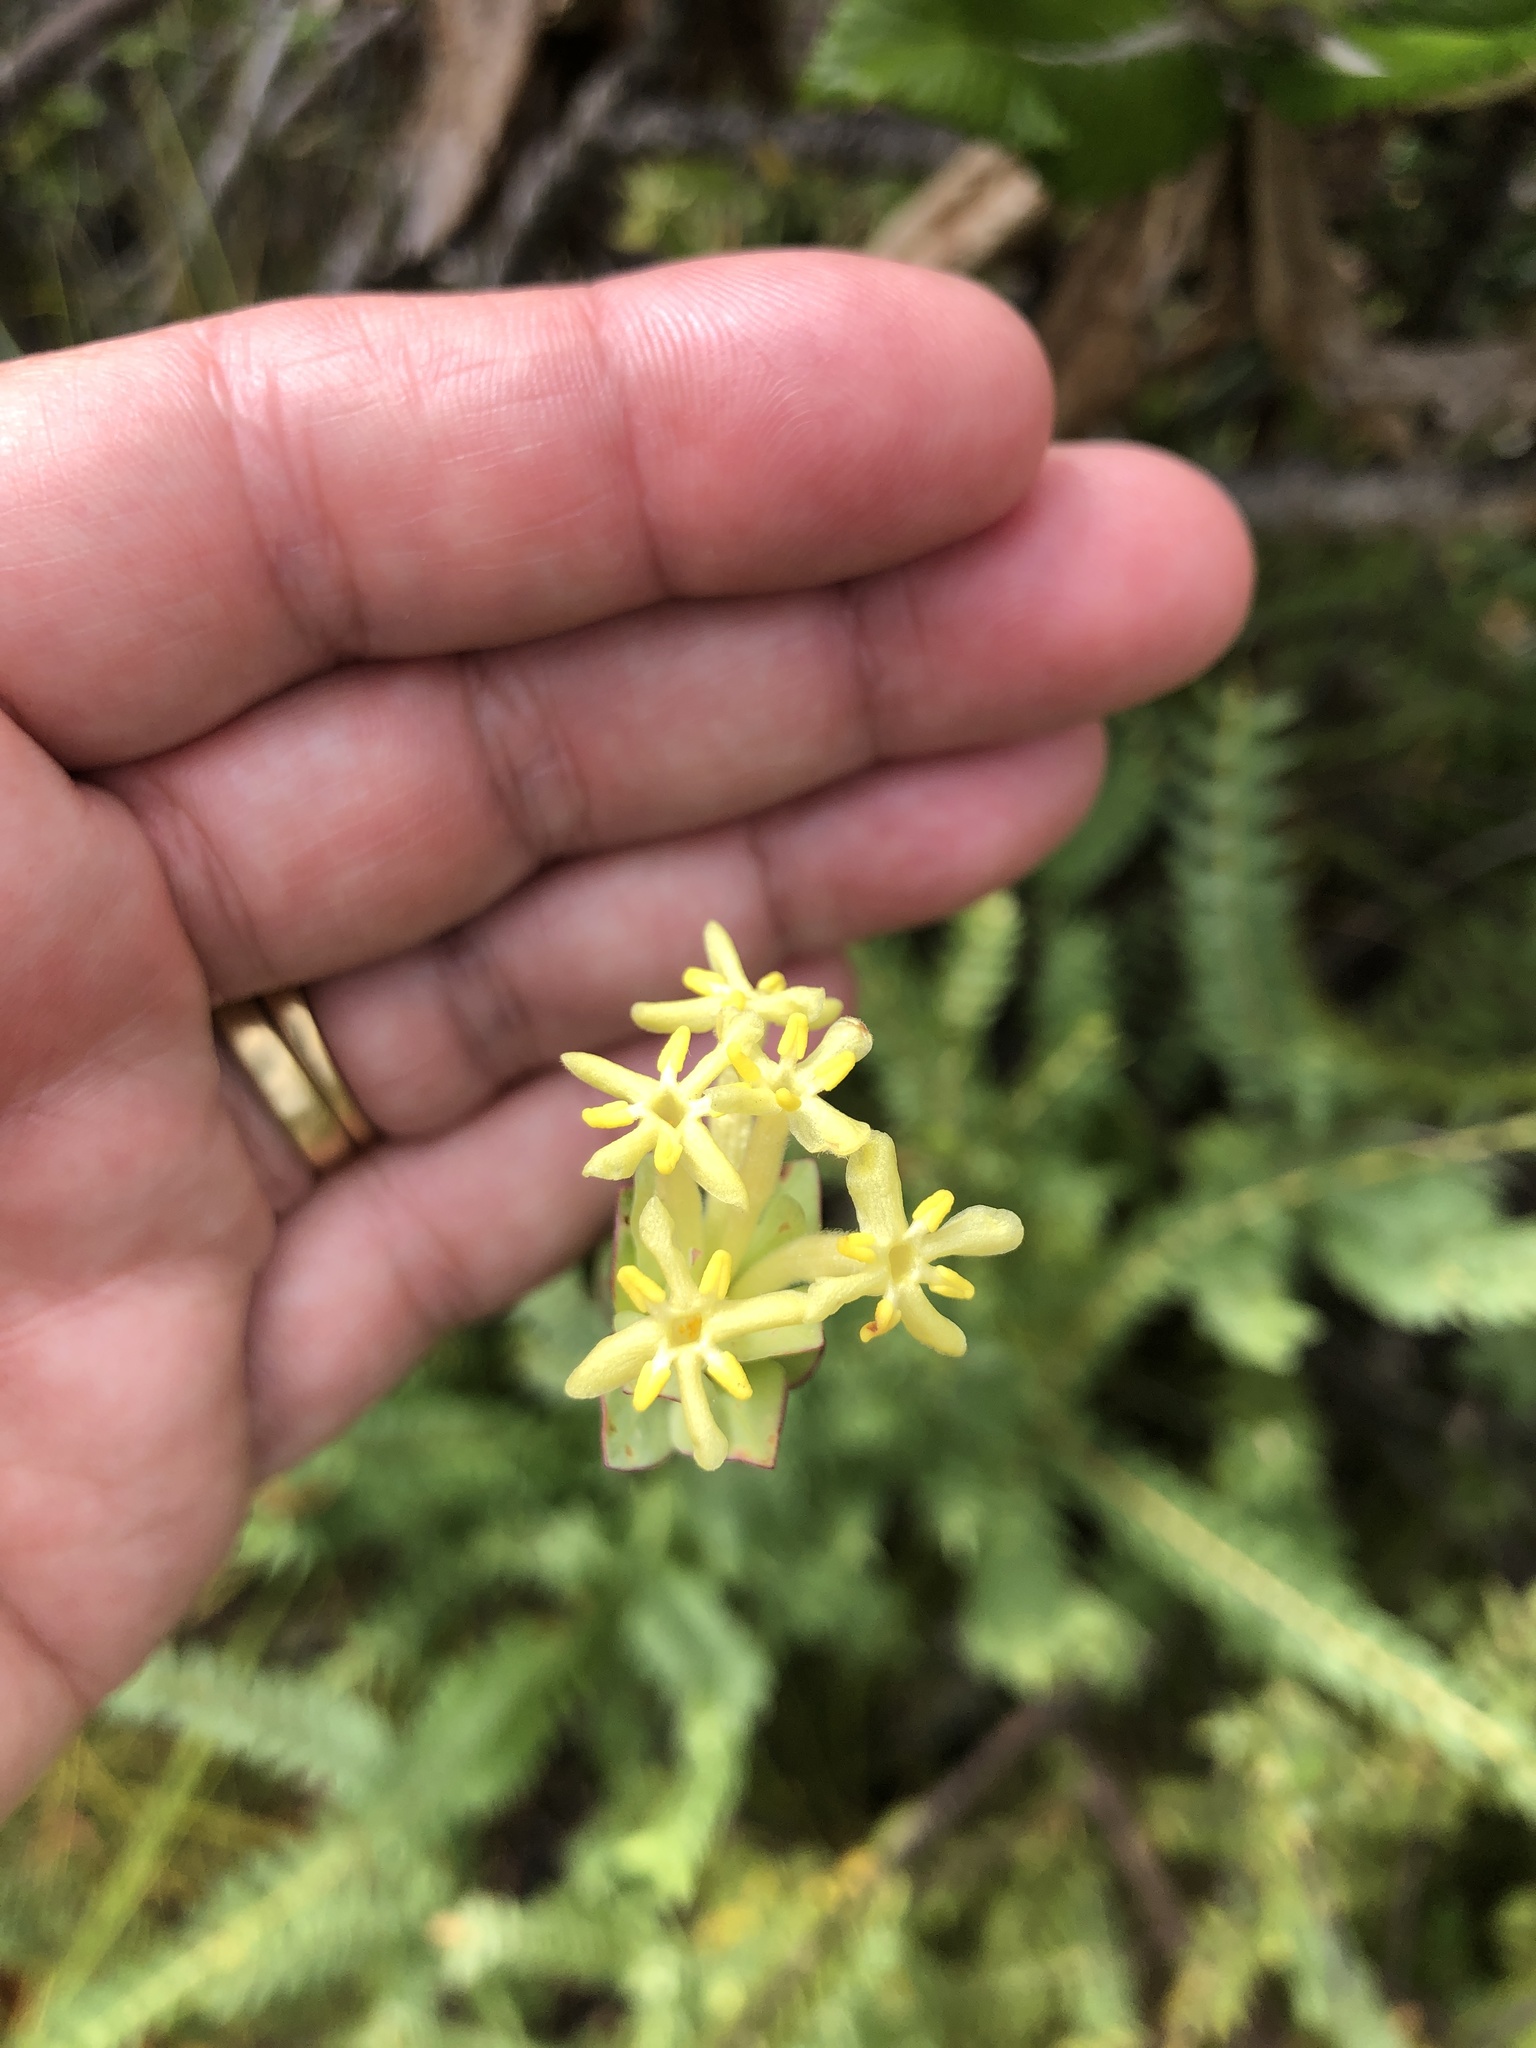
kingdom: Plantae
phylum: Tracheophyta
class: Magnoliopsida
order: Malvales
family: Thymelaeaceae
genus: Gnidia
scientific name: Gnidia oppositifolia
